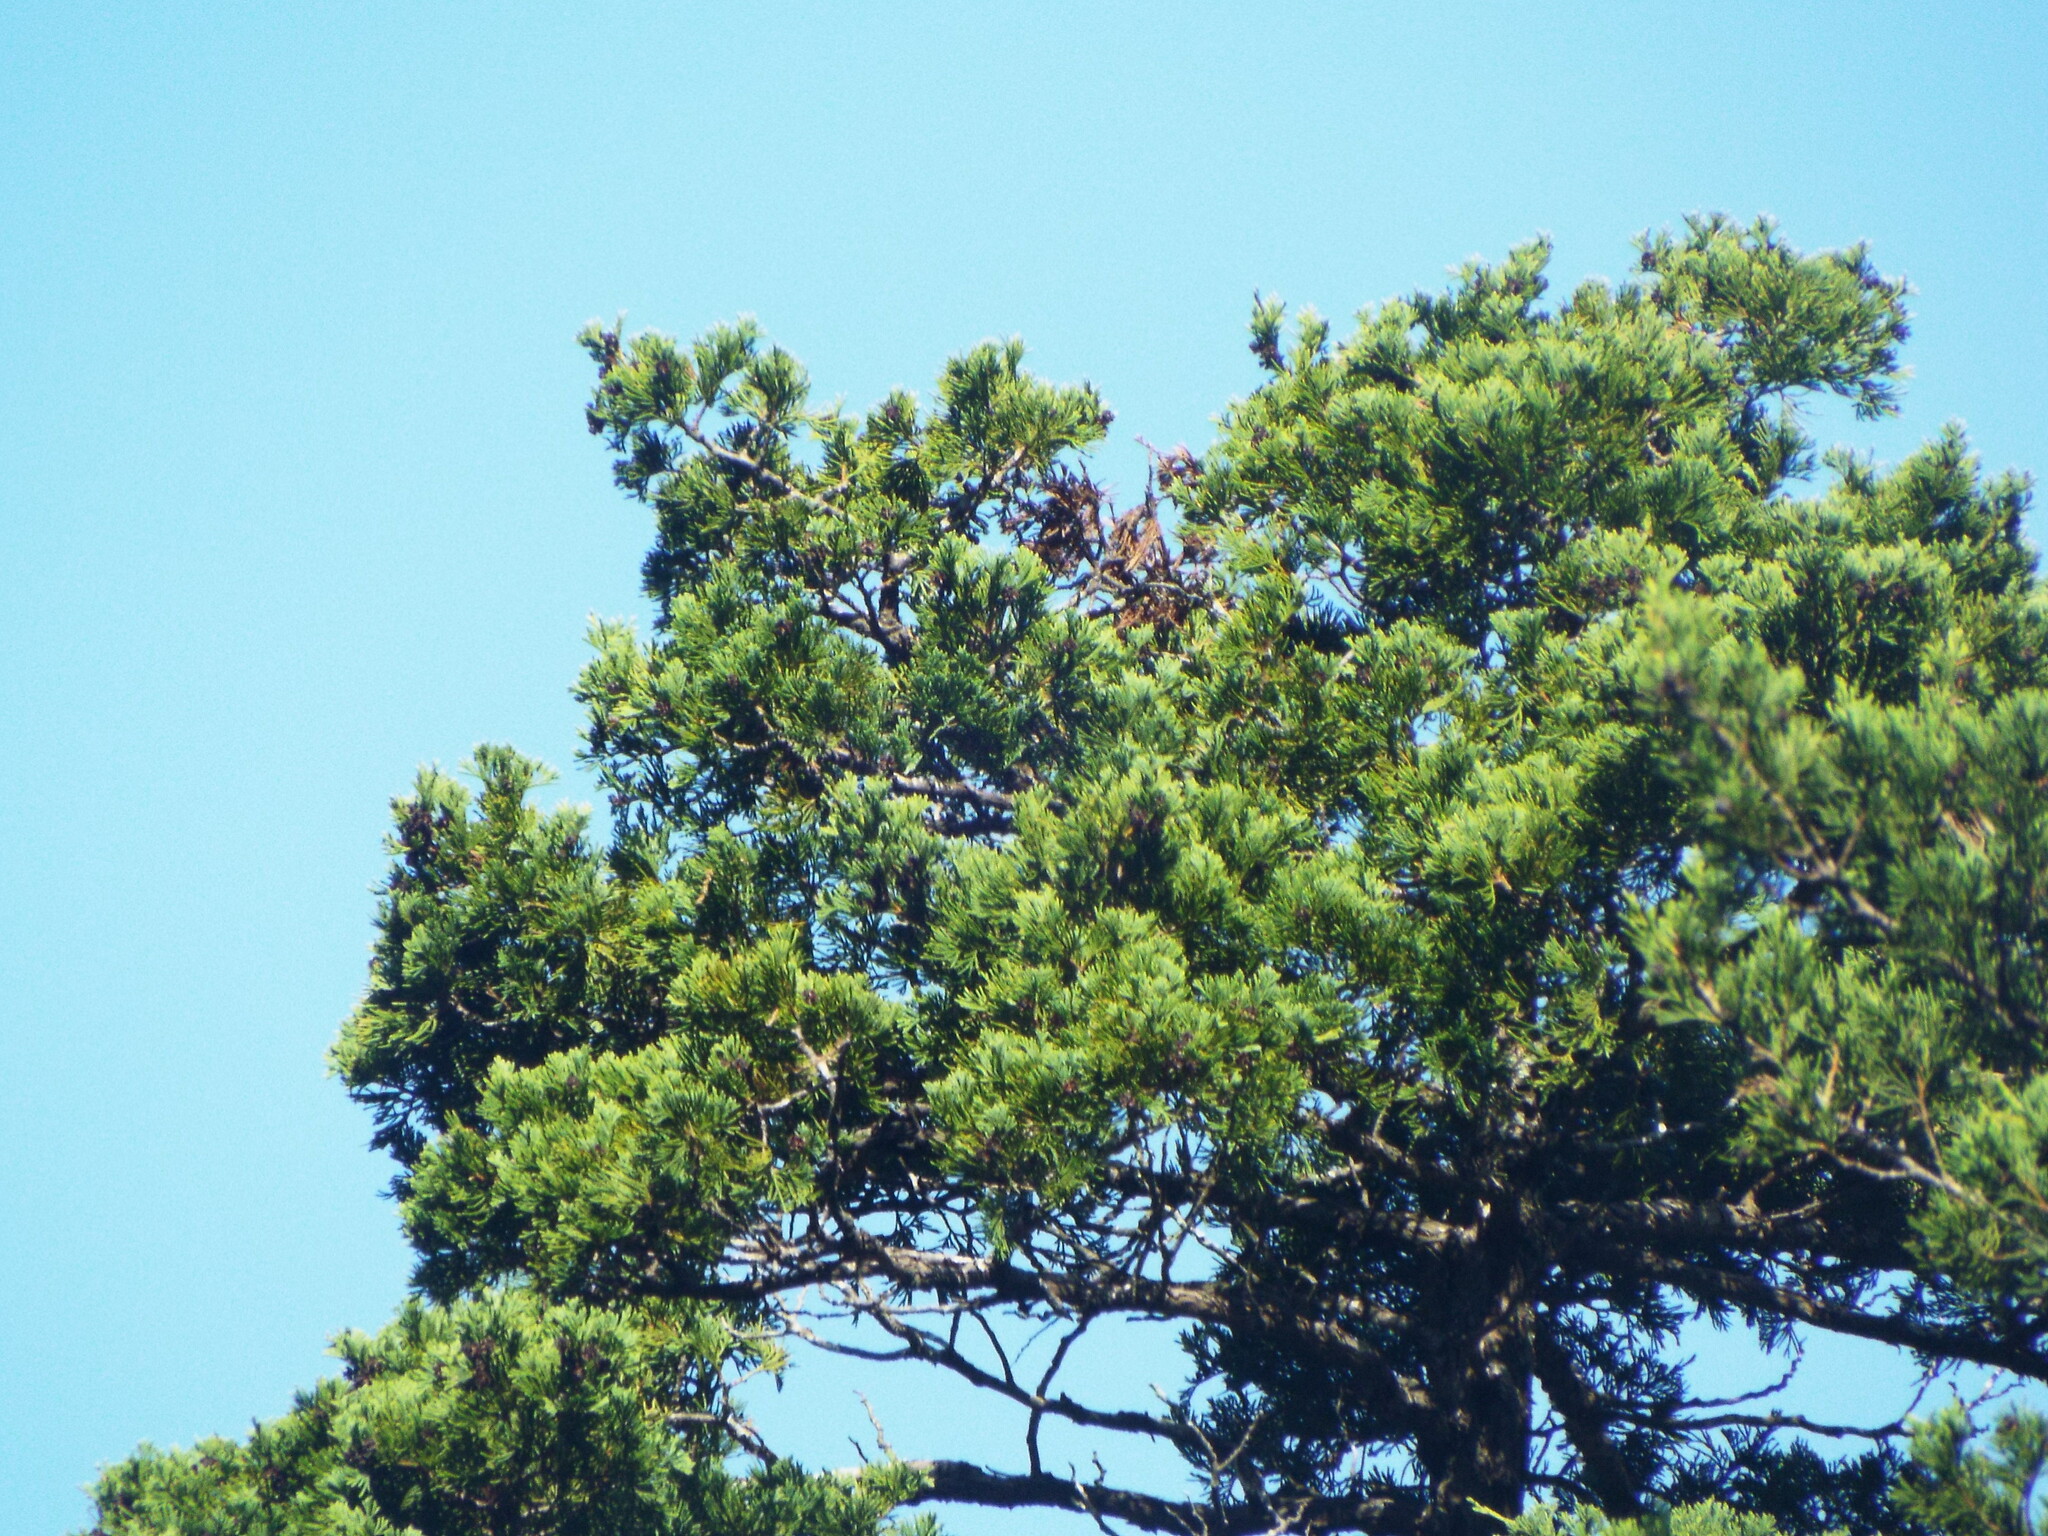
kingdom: Plantae
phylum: Tracheophyta
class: Pinopsida
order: Pinales
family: Cupressaceae
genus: Chamaecyparis
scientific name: Chamaecyparis thyoides
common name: Atlantic white cedar
